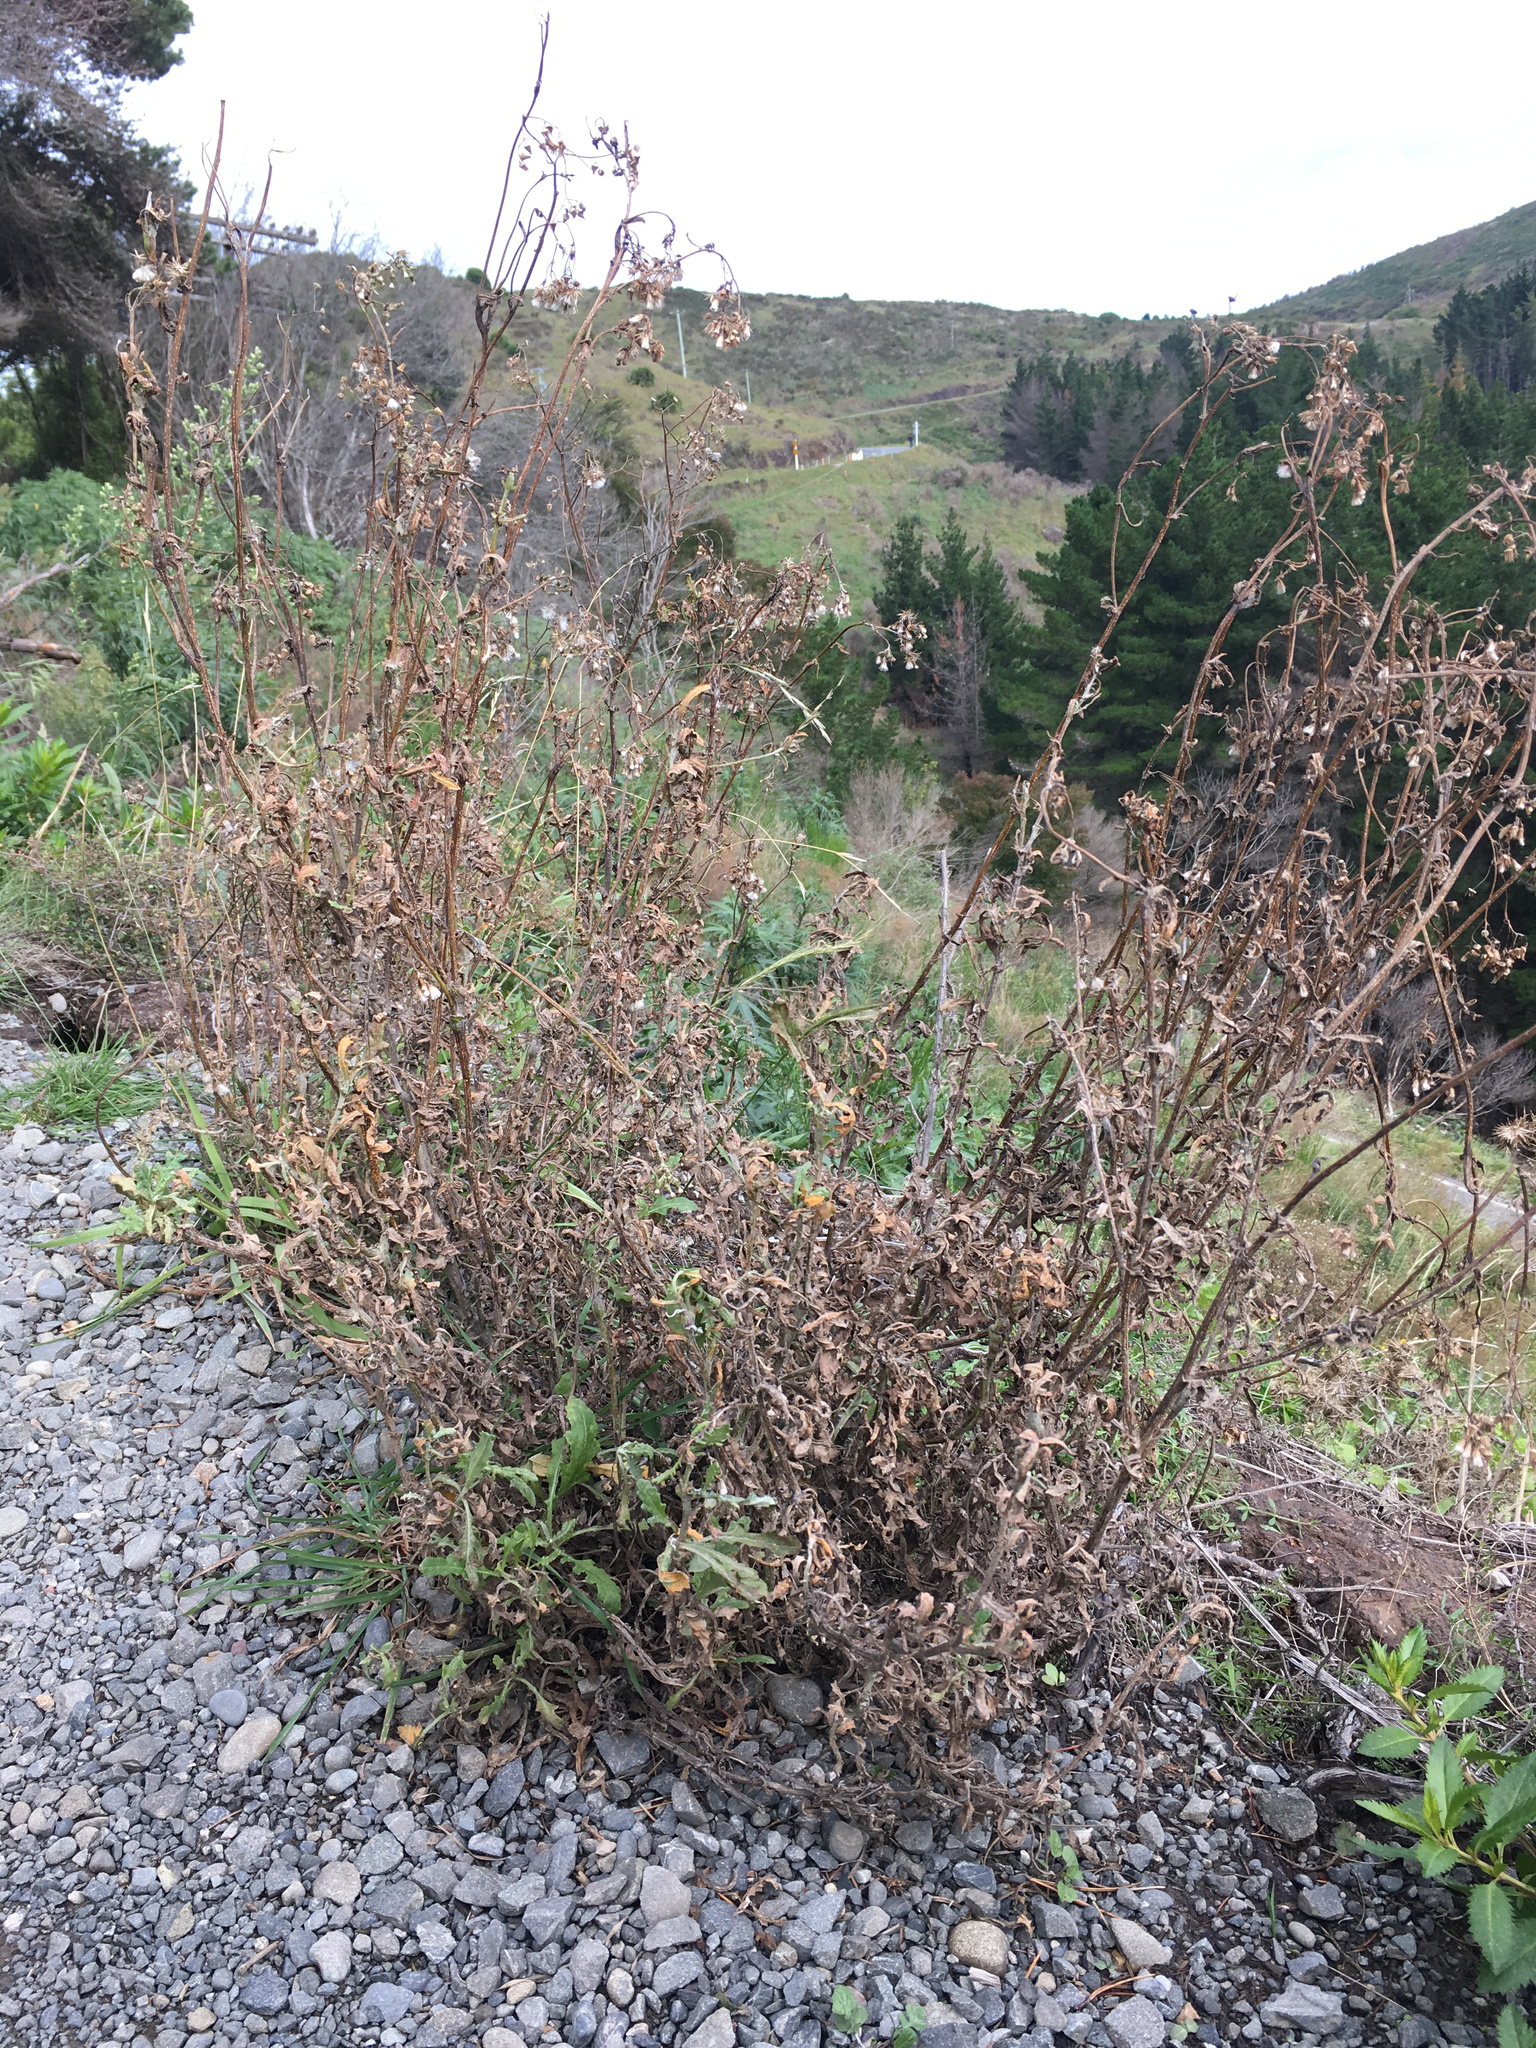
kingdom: Plantae
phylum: Tracheophyta
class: Magnoliopsida
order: Asterales
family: Asteraceae
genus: Senecio
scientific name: Senecio glomeratus
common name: Cutleaf burnweed
